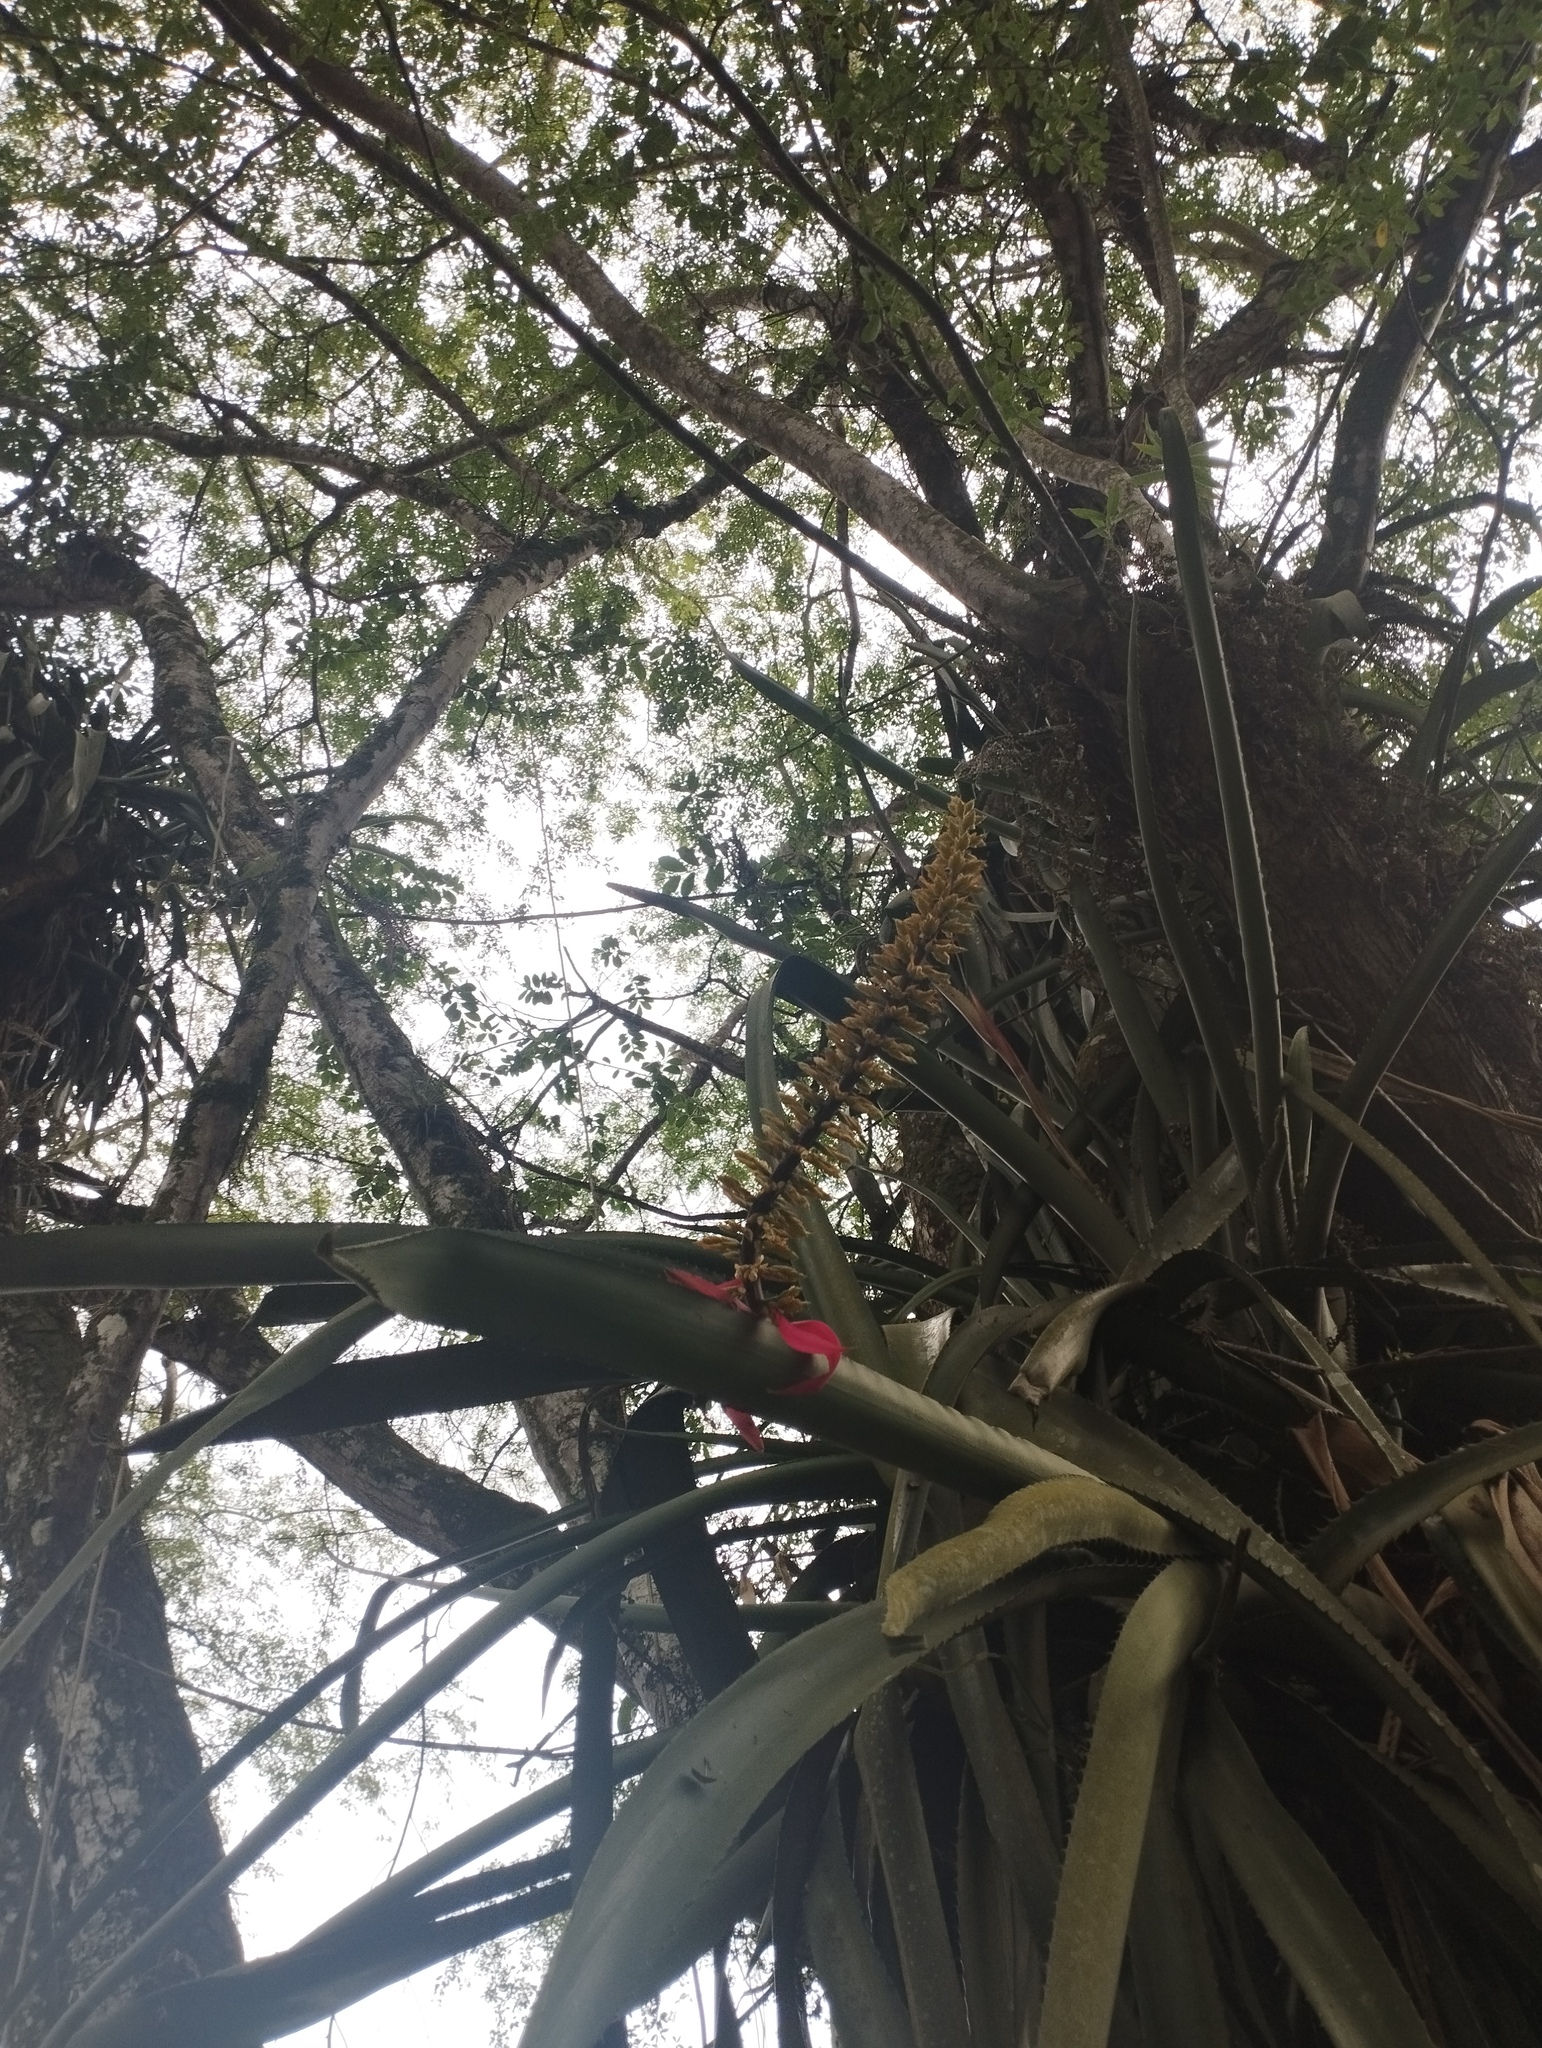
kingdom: Plantae
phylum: Tracheophyta
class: Liliopsida
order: Poales
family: Bromeliaceae
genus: Aechmea
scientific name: Aechmea tocantina
